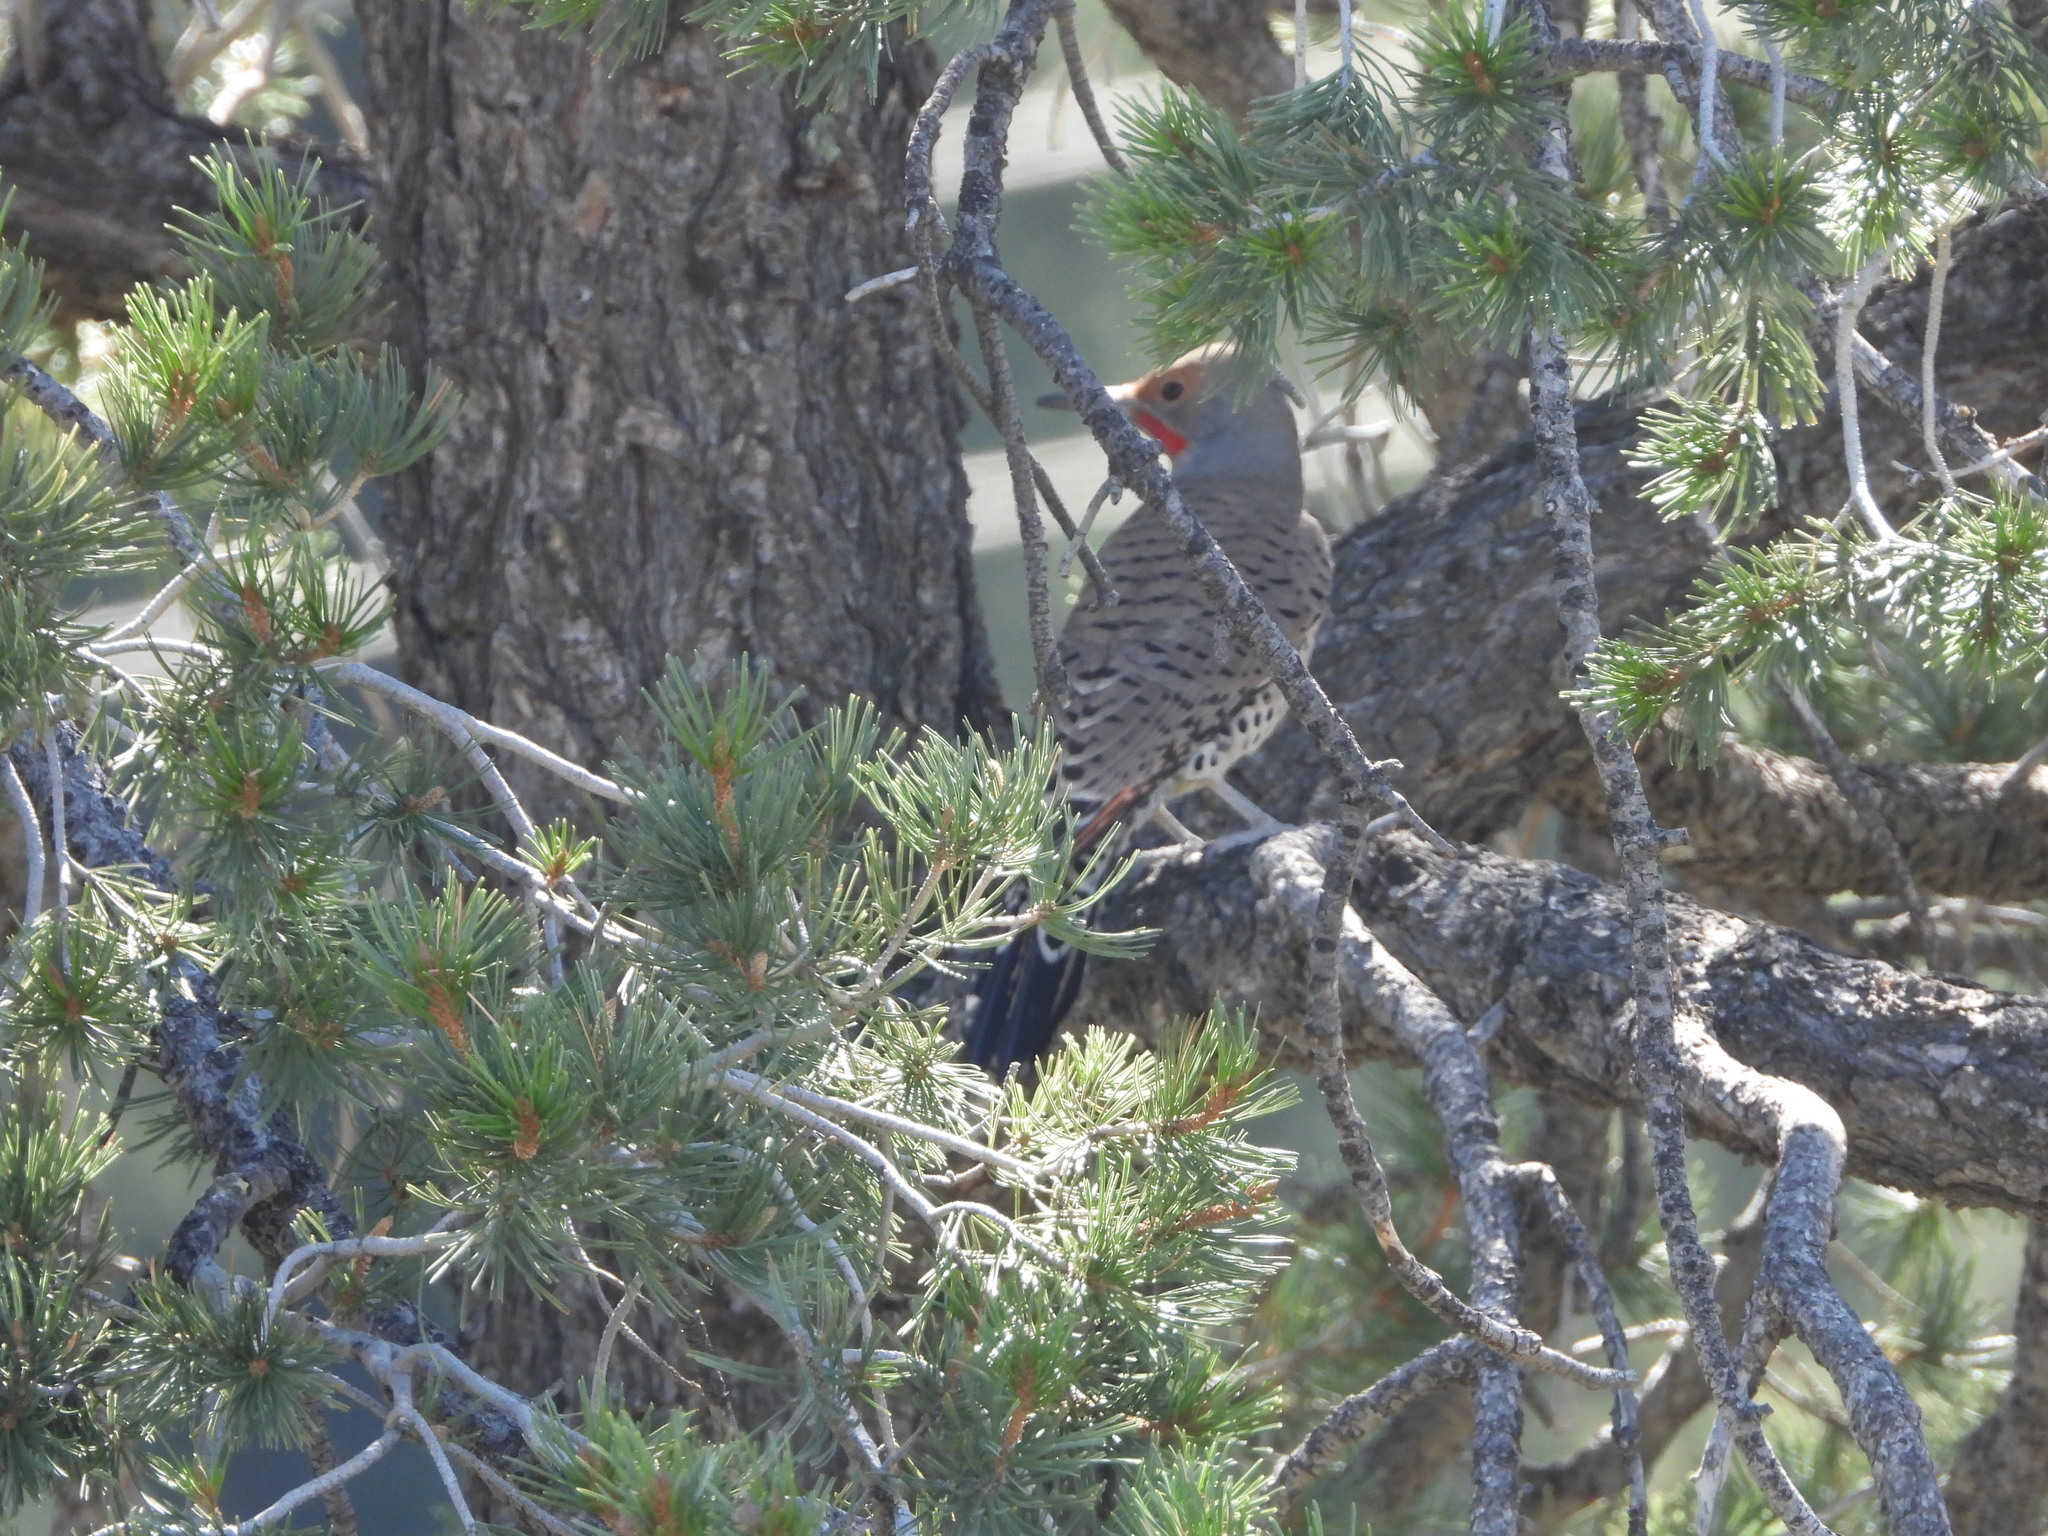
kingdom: Animalia
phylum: Chordata
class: Aves
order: Piciformes
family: Picidae
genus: Colaptes
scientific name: Colaptes auratus
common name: Northern flicker
